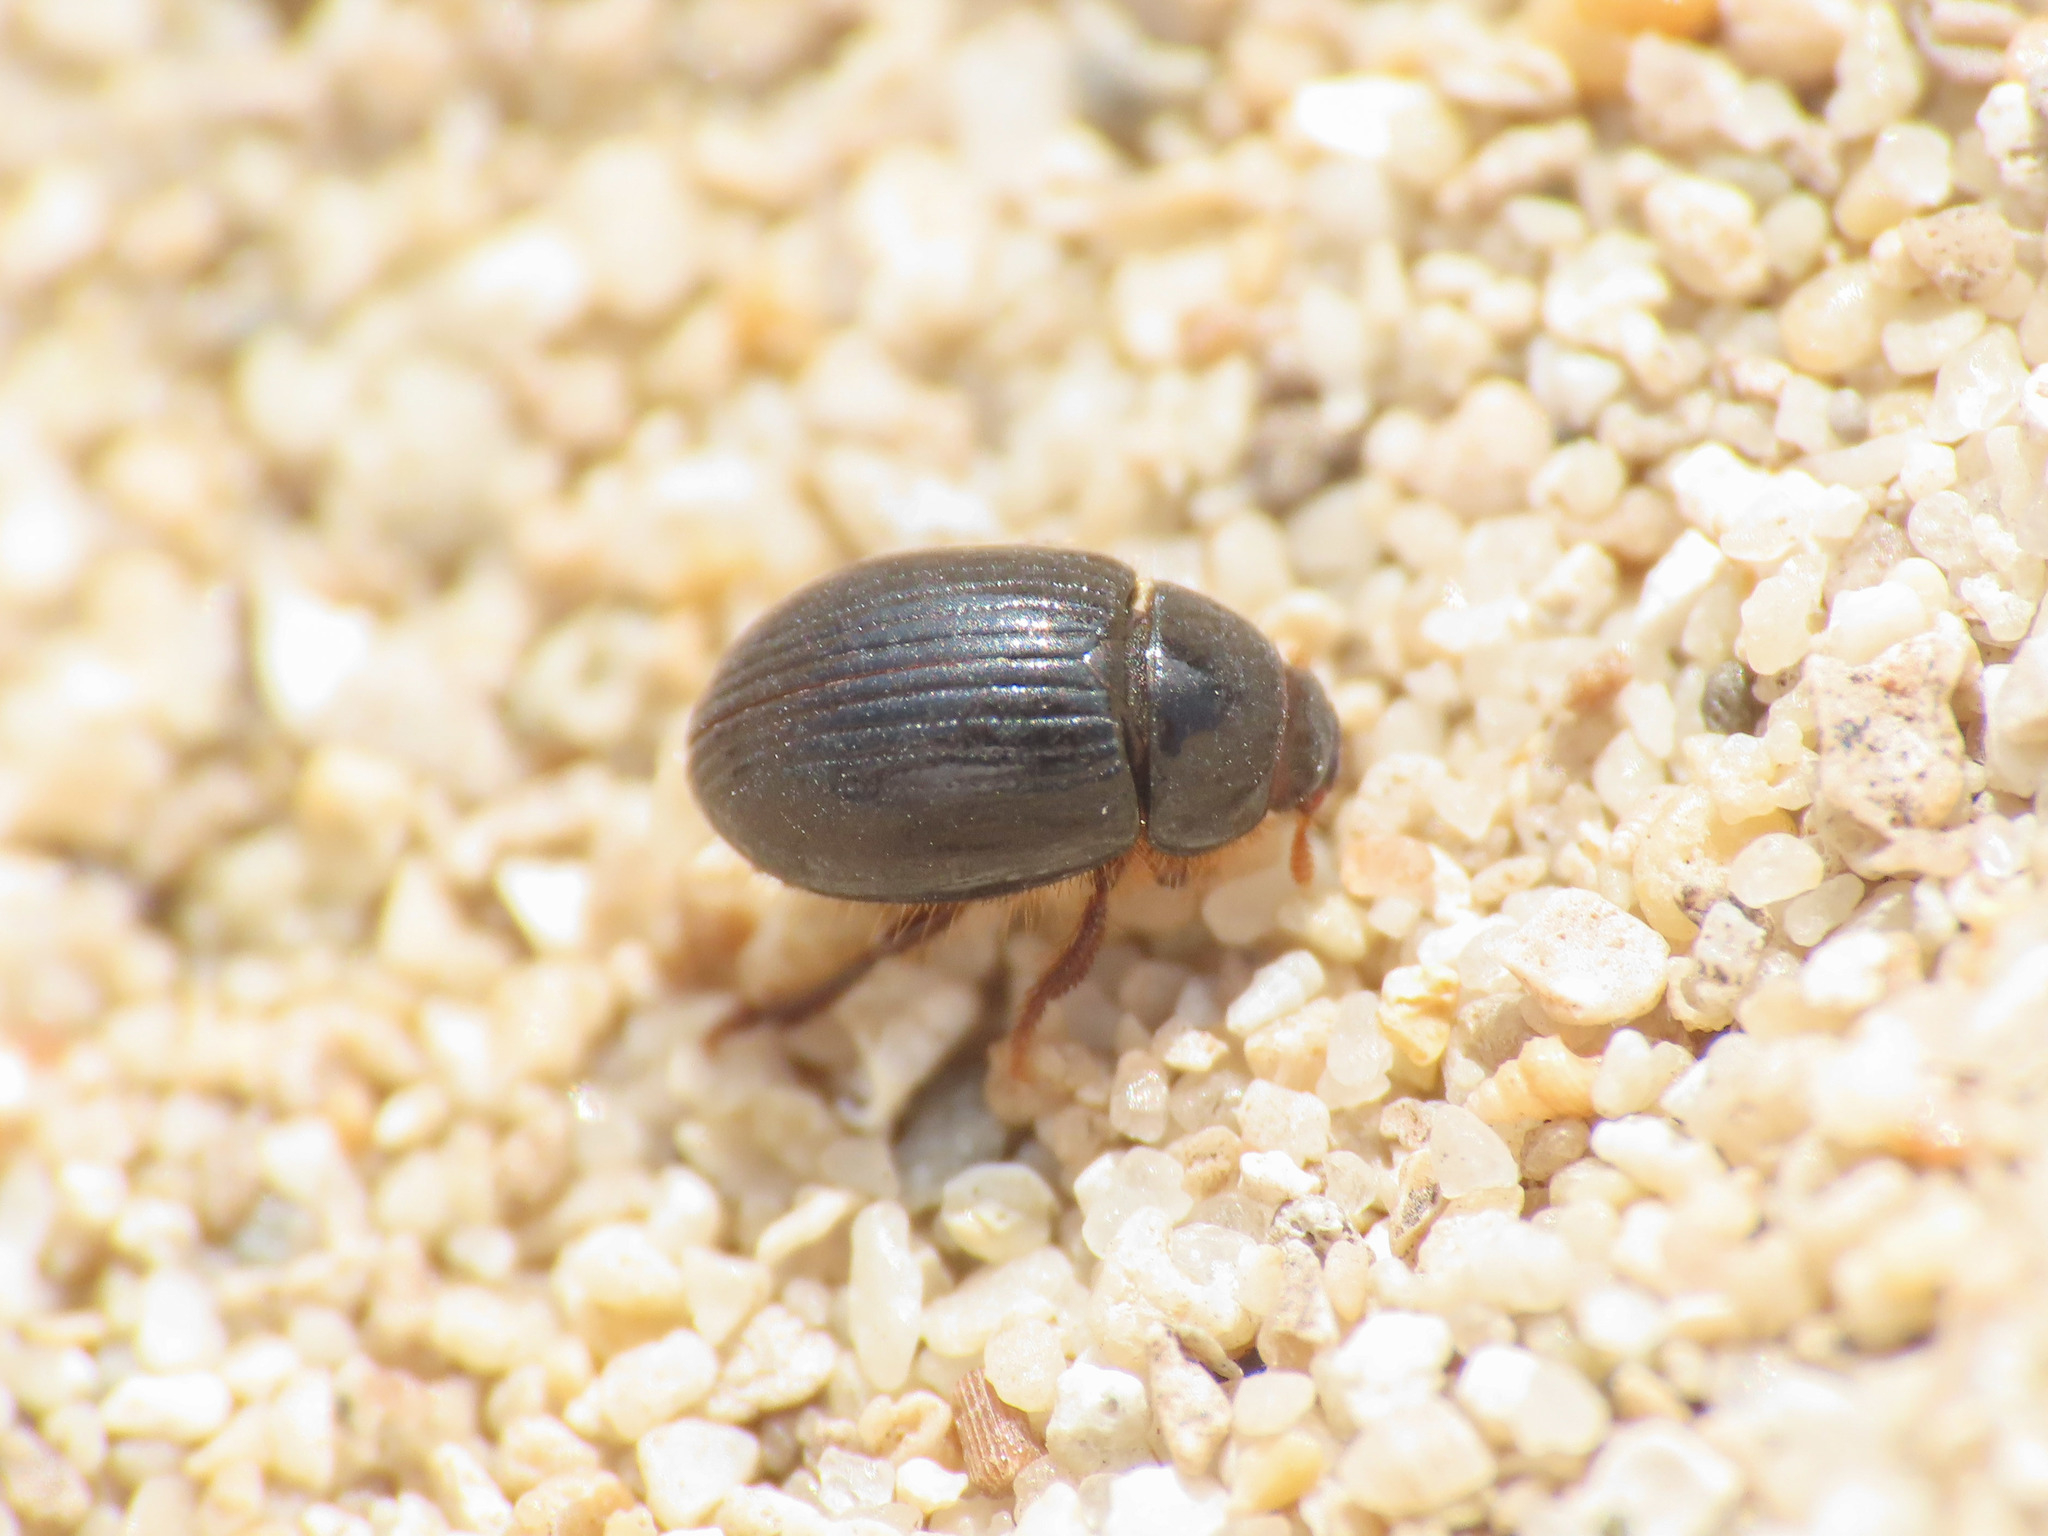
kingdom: Animalia
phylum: Arthropoda
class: Insecta
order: Coleoptera
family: Tenebrionidae
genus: Trachyscelis
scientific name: Trachyscelis aphodioides
